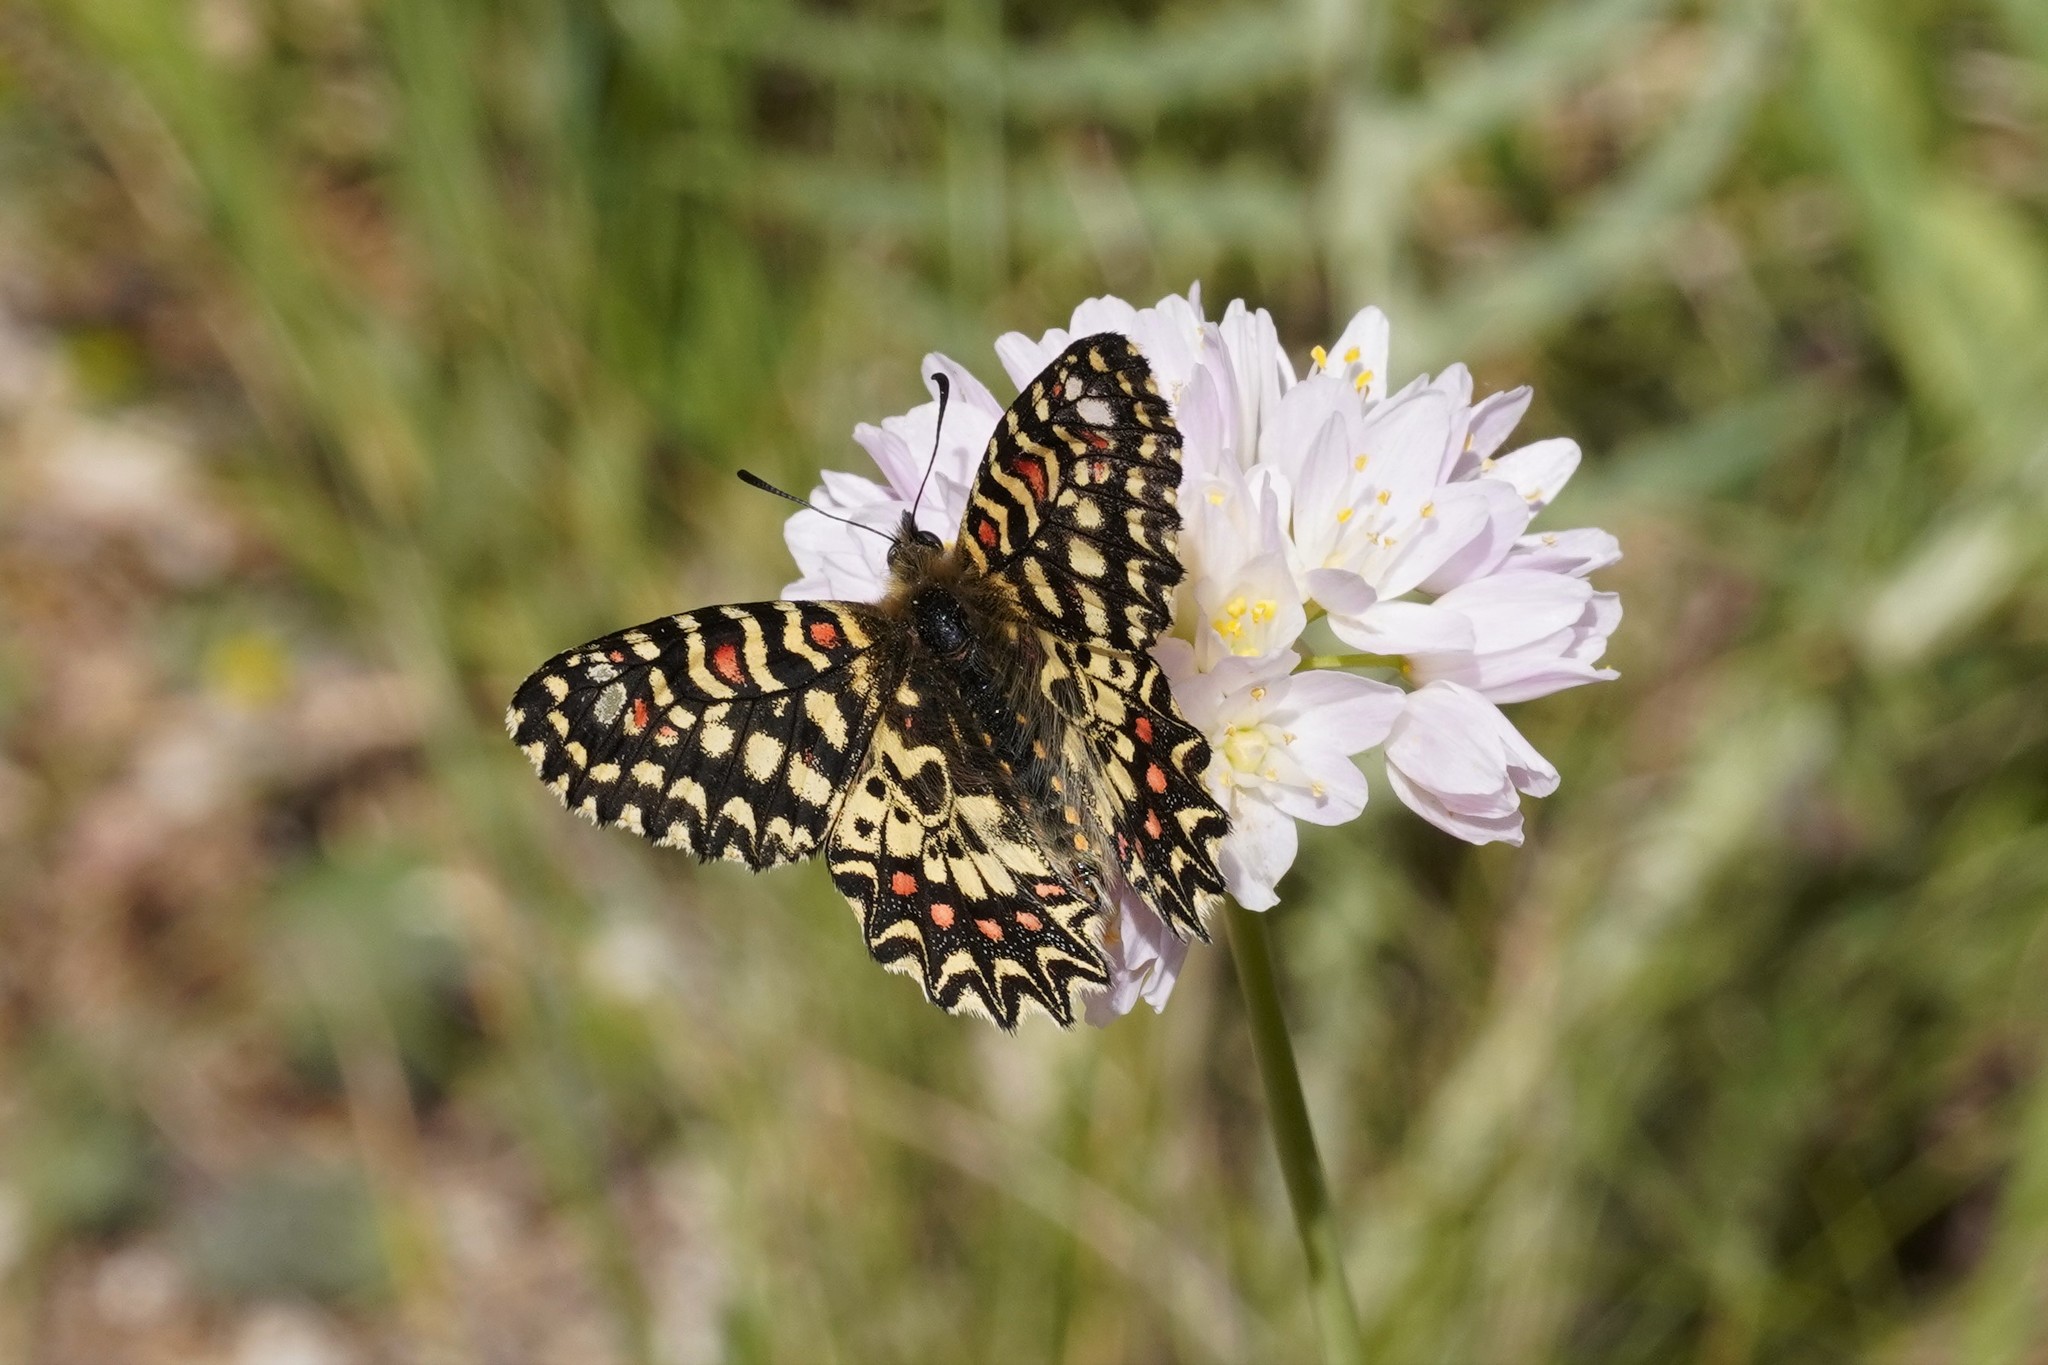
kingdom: Animalia
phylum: Arthropoda
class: Insecta
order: Lepidoptera
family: Papilionidae
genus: Zerynthia
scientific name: Zerynthia rumina
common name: Spanish festoon
